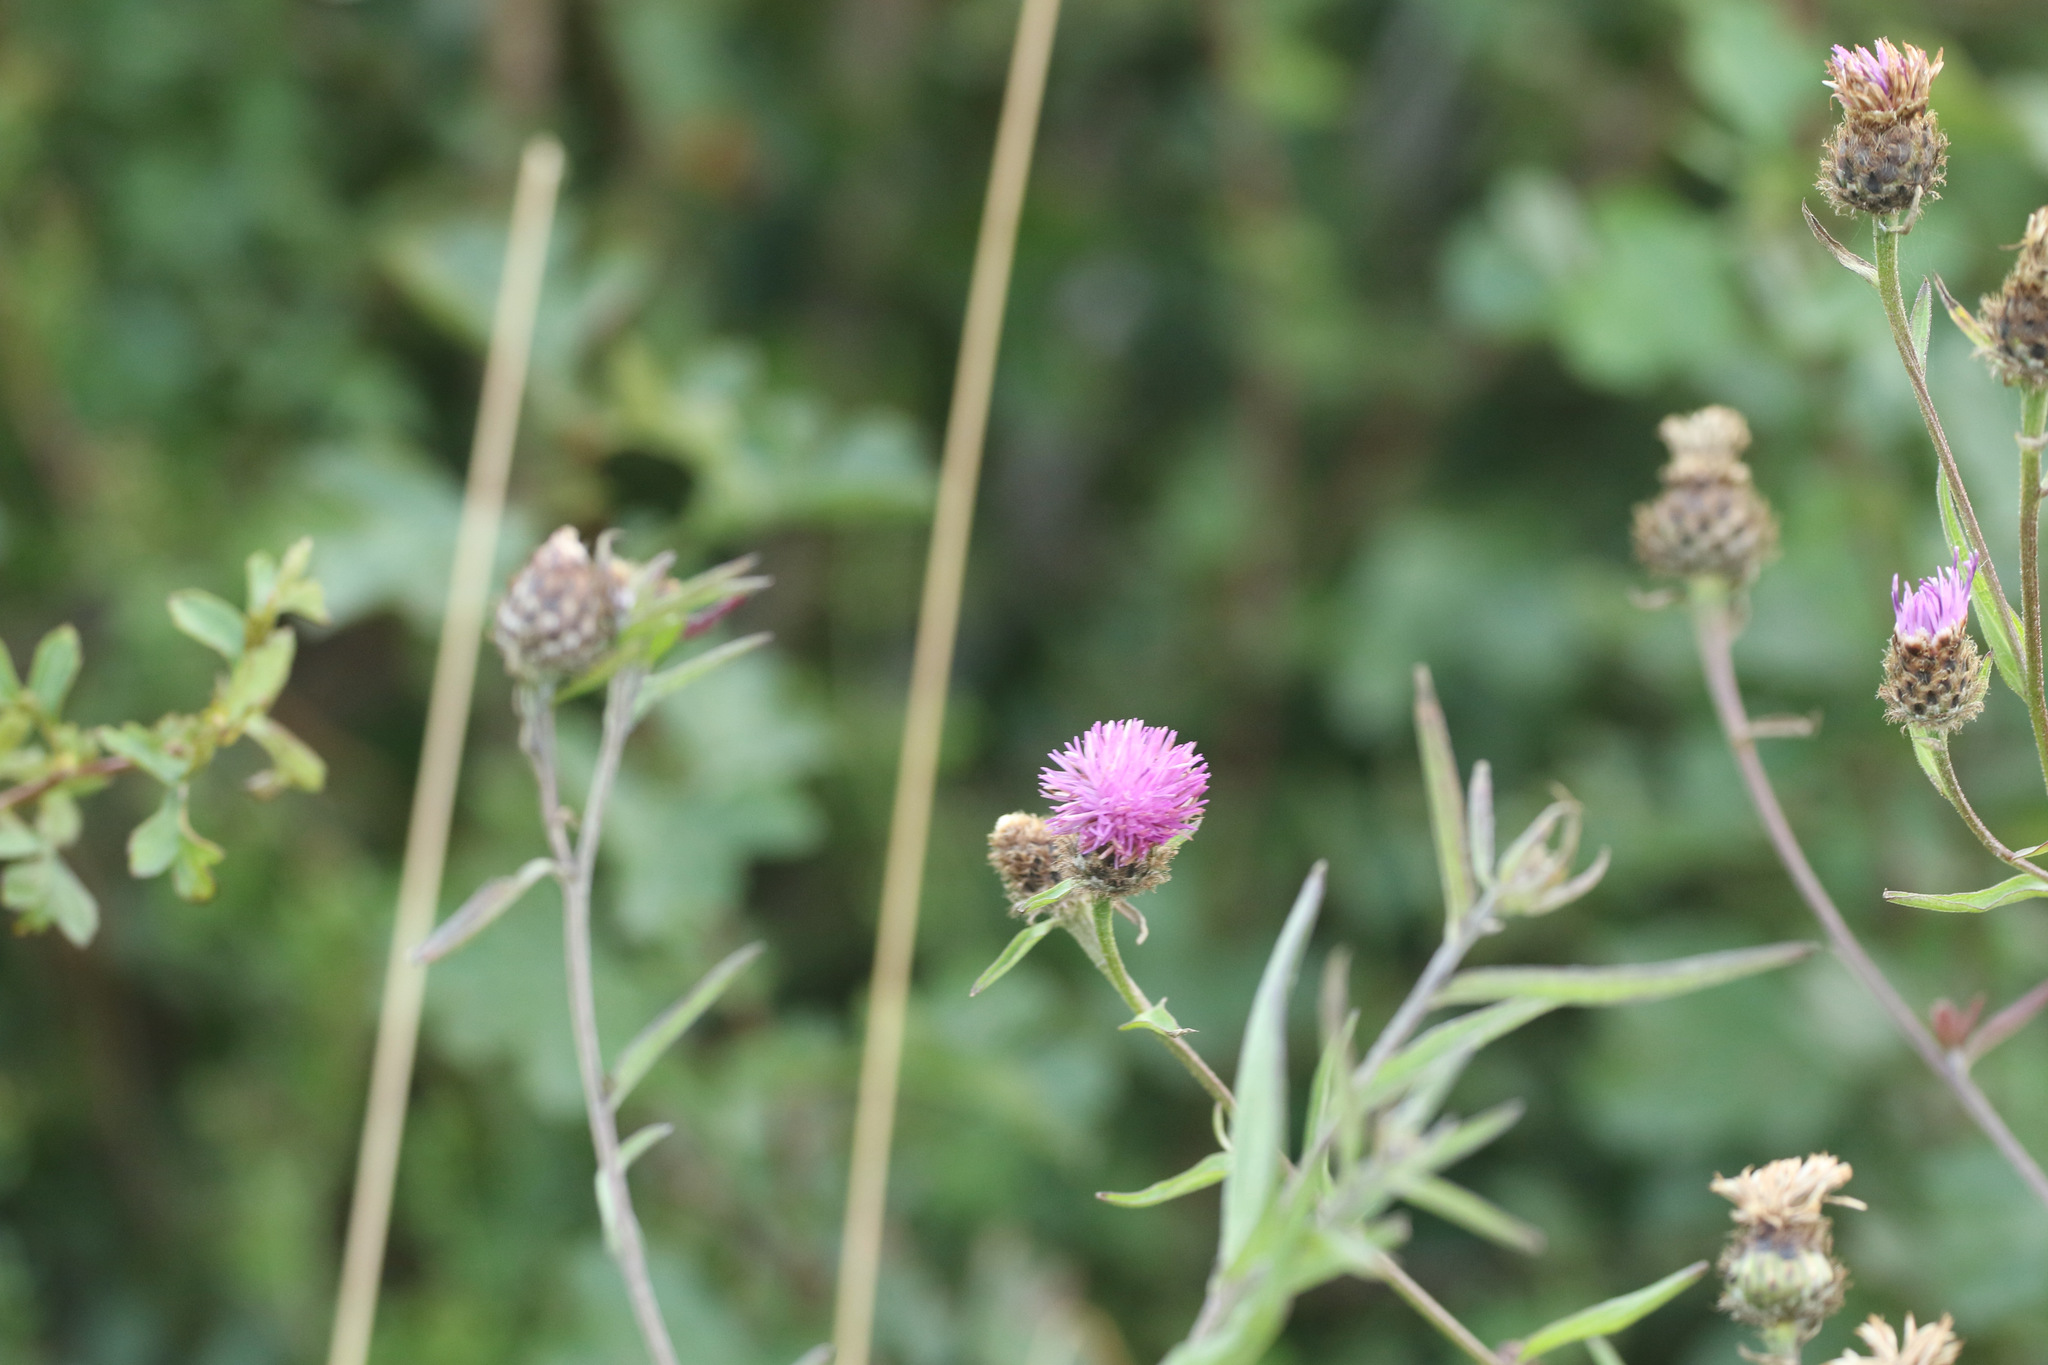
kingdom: Plantae
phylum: Tracheophyta
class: Magnoliopsida
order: Asterales
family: Asteraceae
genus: Centaurea
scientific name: Centaurea nigra
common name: Lesser knapweed
